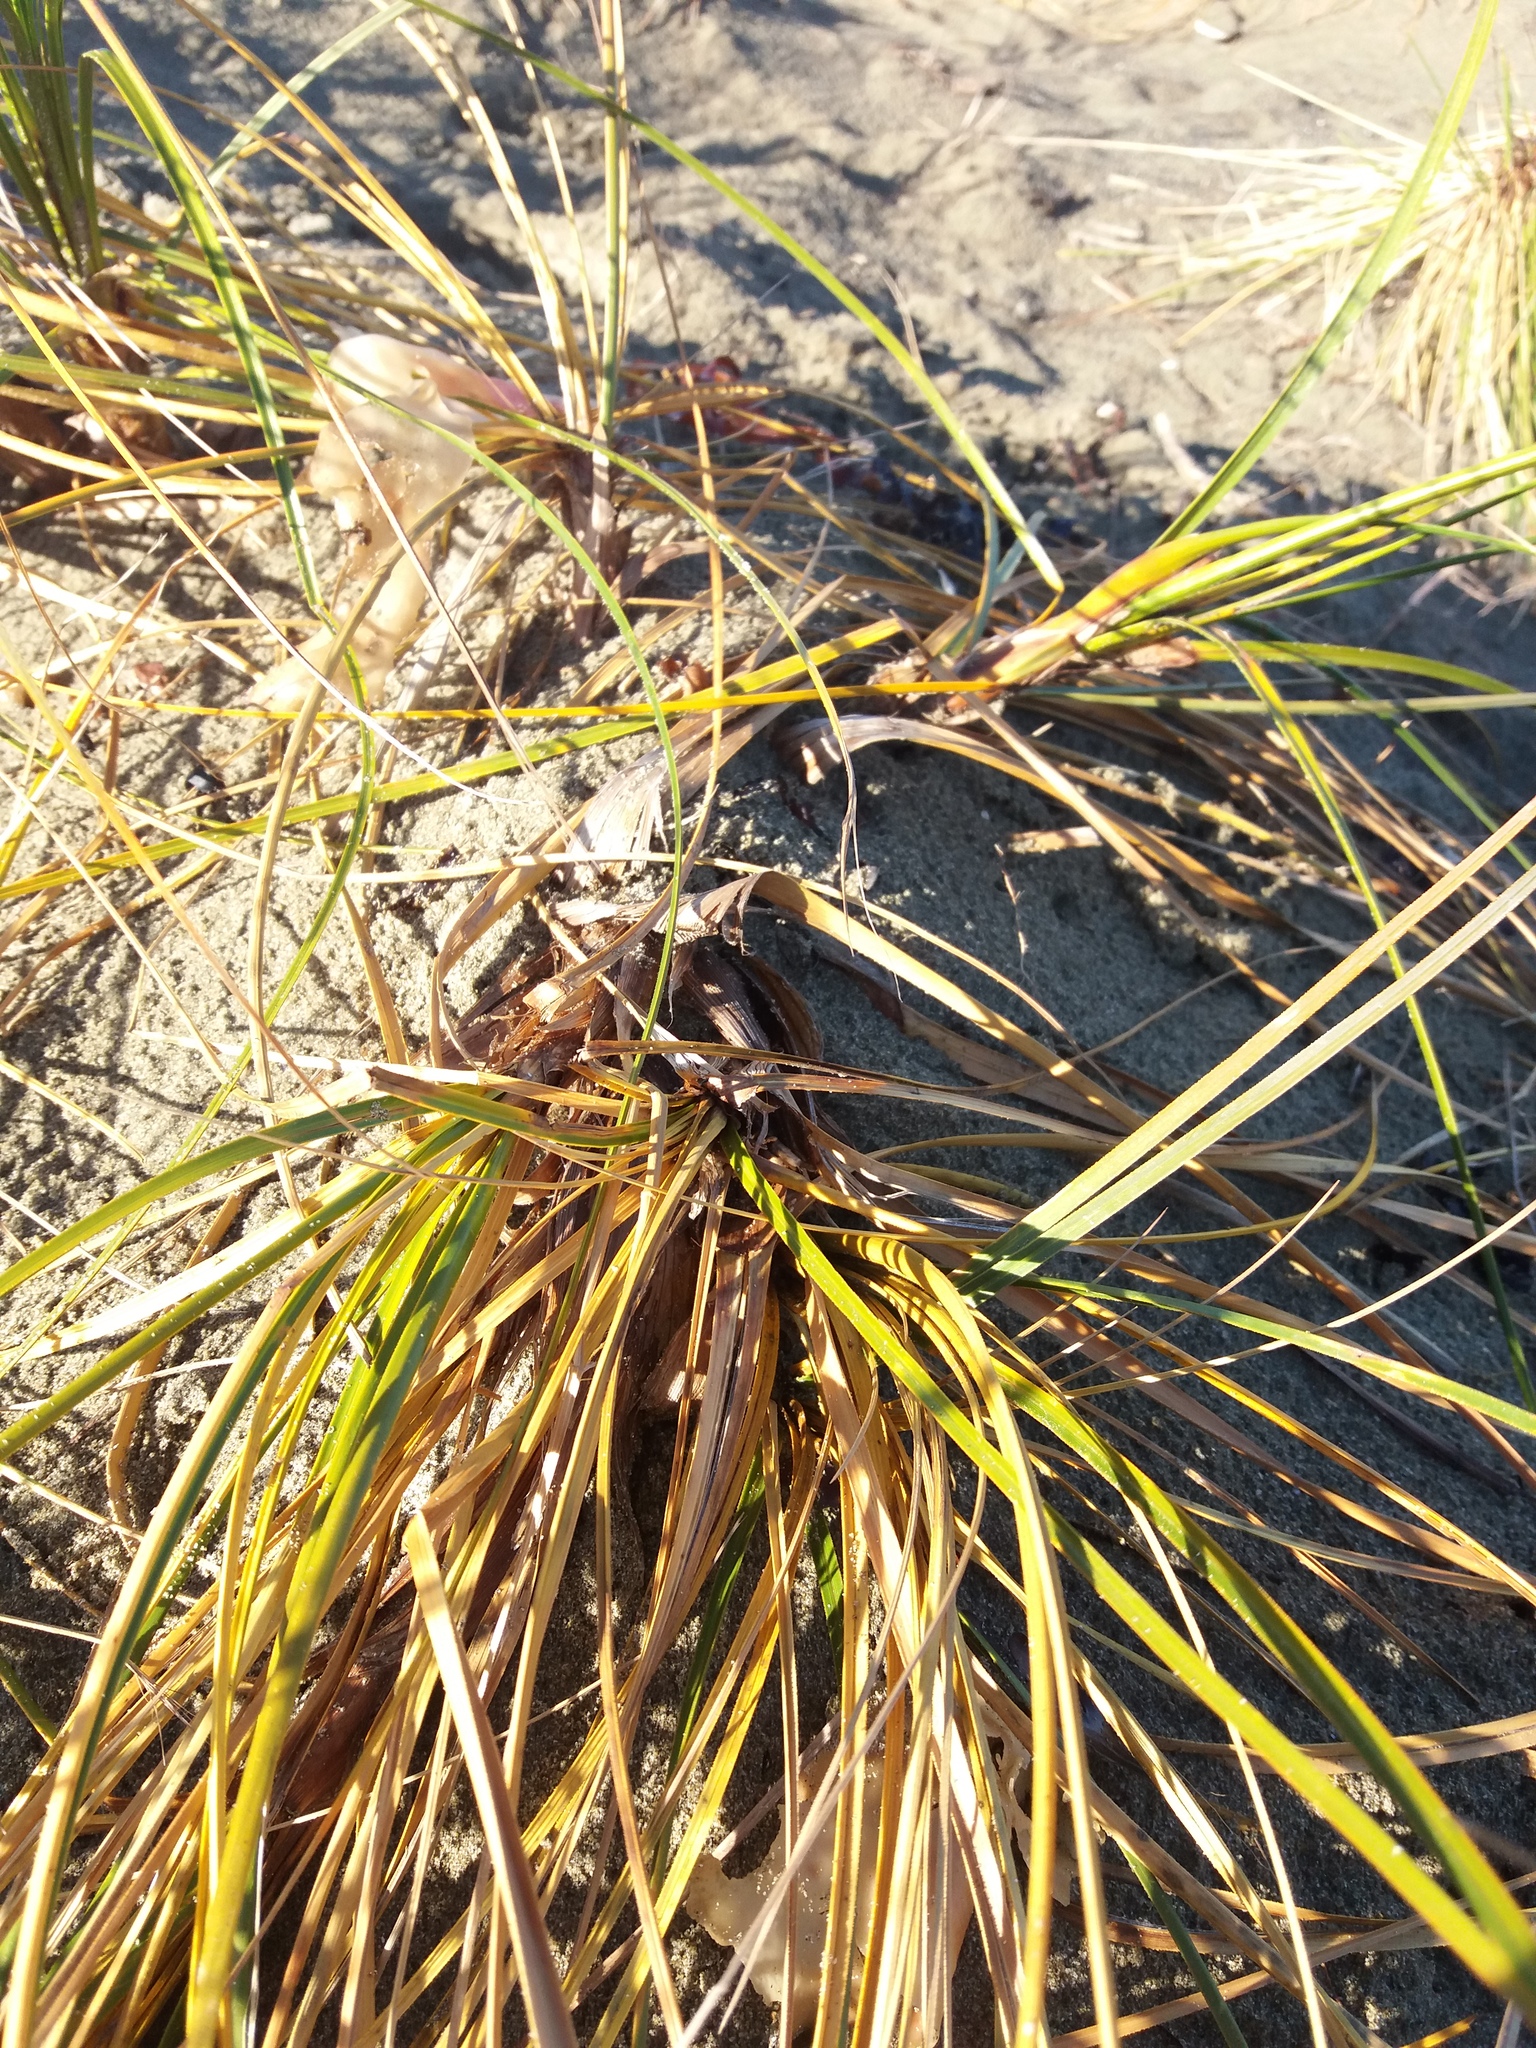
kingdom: Plantae
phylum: Tracheophyta
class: Liliopsida
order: Poales
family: Cyperaceae
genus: Ficinia
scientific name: Ficinia spiralis
